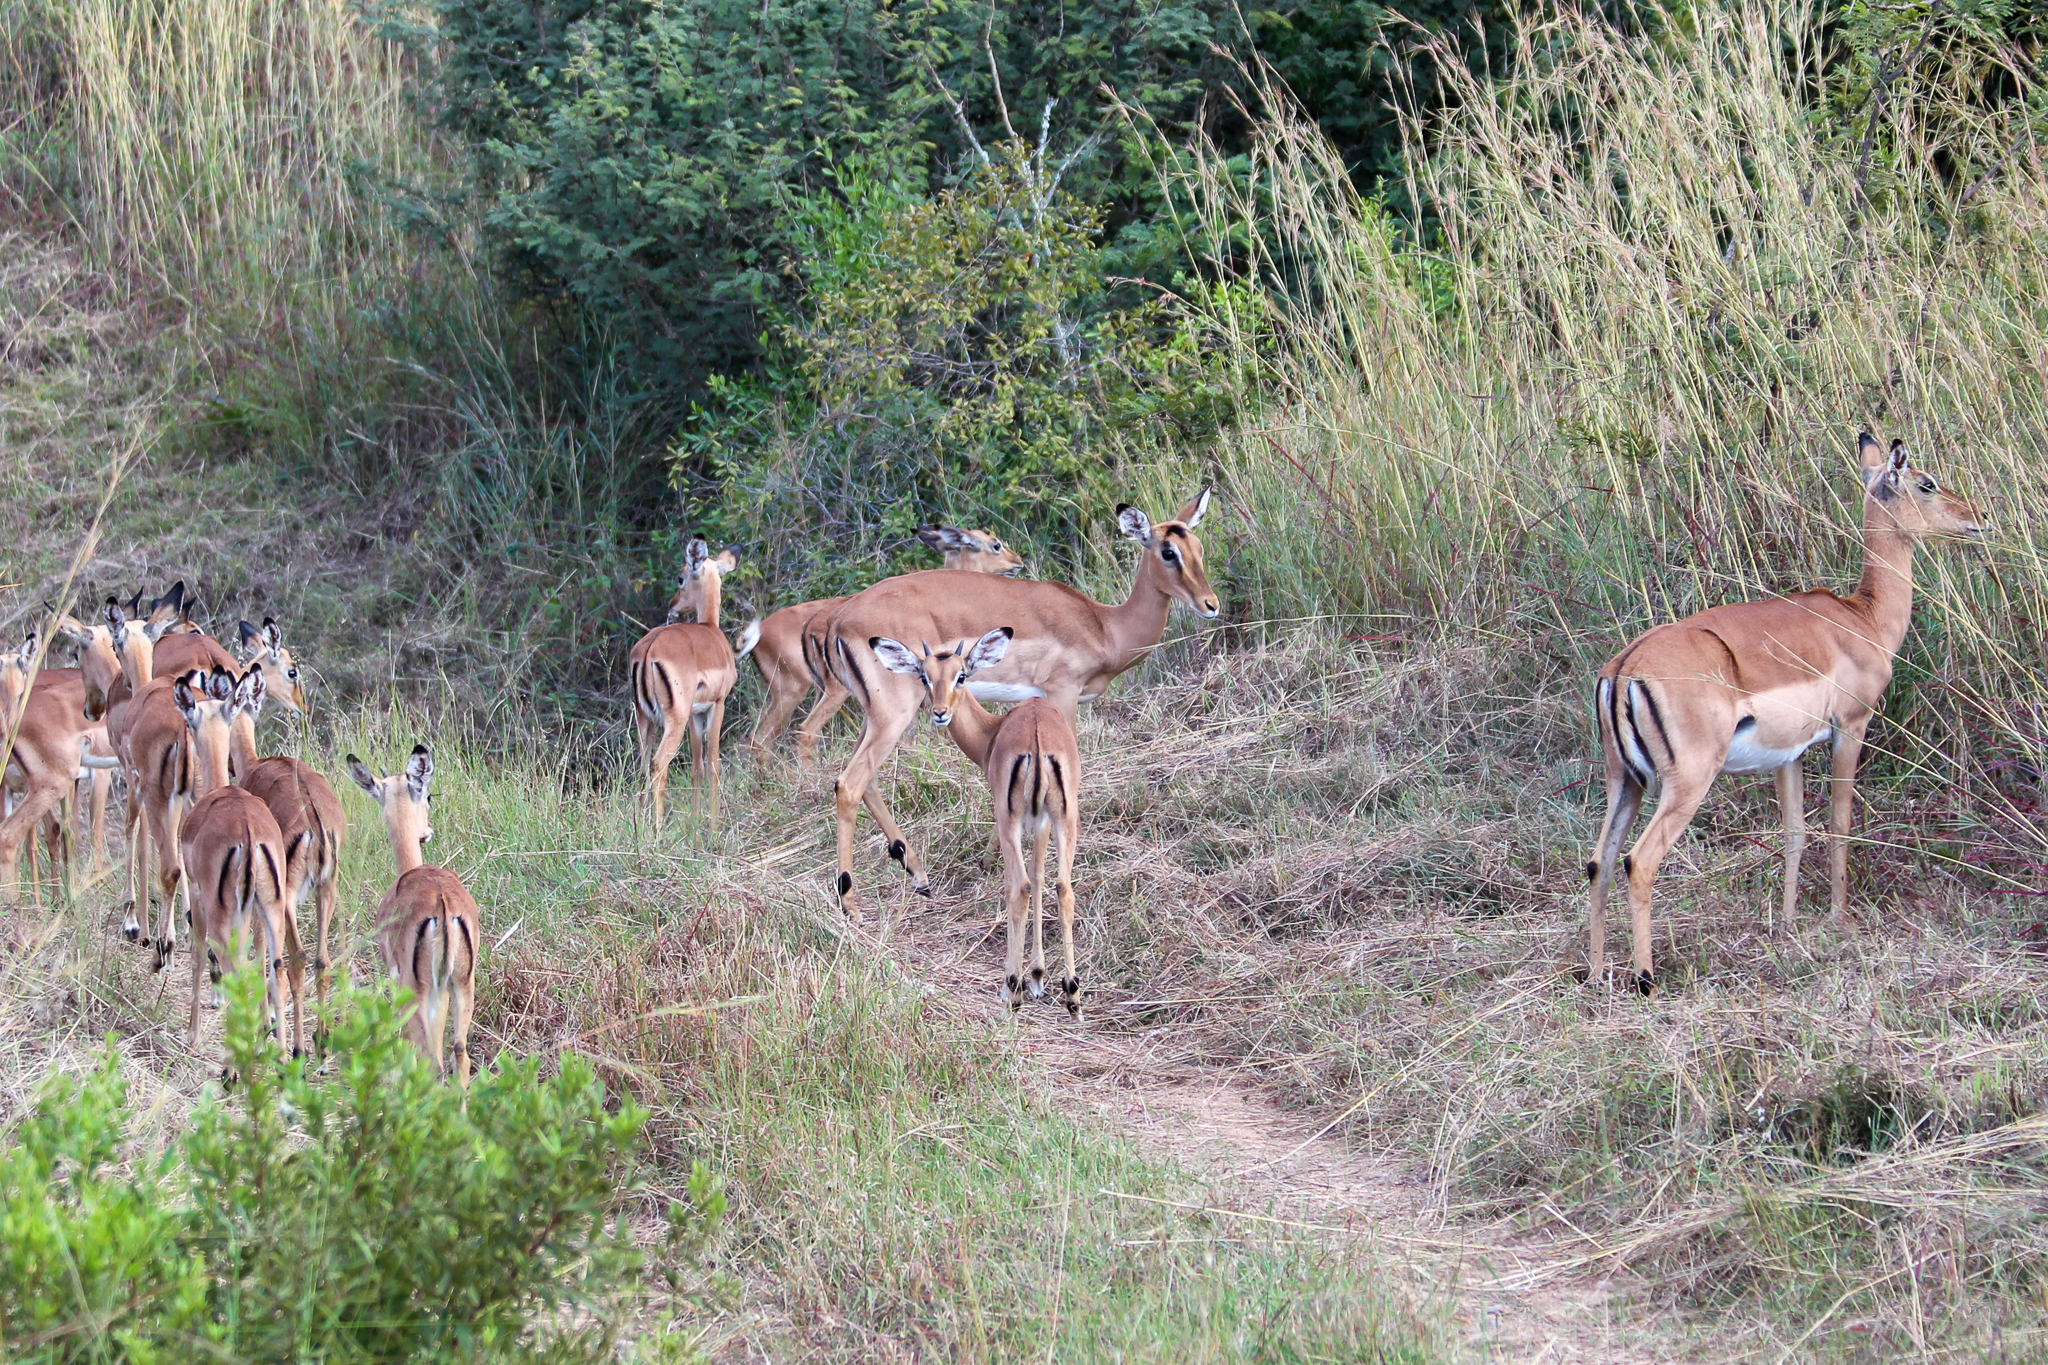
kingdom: Animalia
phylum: Chordata
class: Mammalia
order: Artiodactyla
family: Bovidae
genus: Aepyceros
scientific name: Aepyceros melampus
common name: Impala
